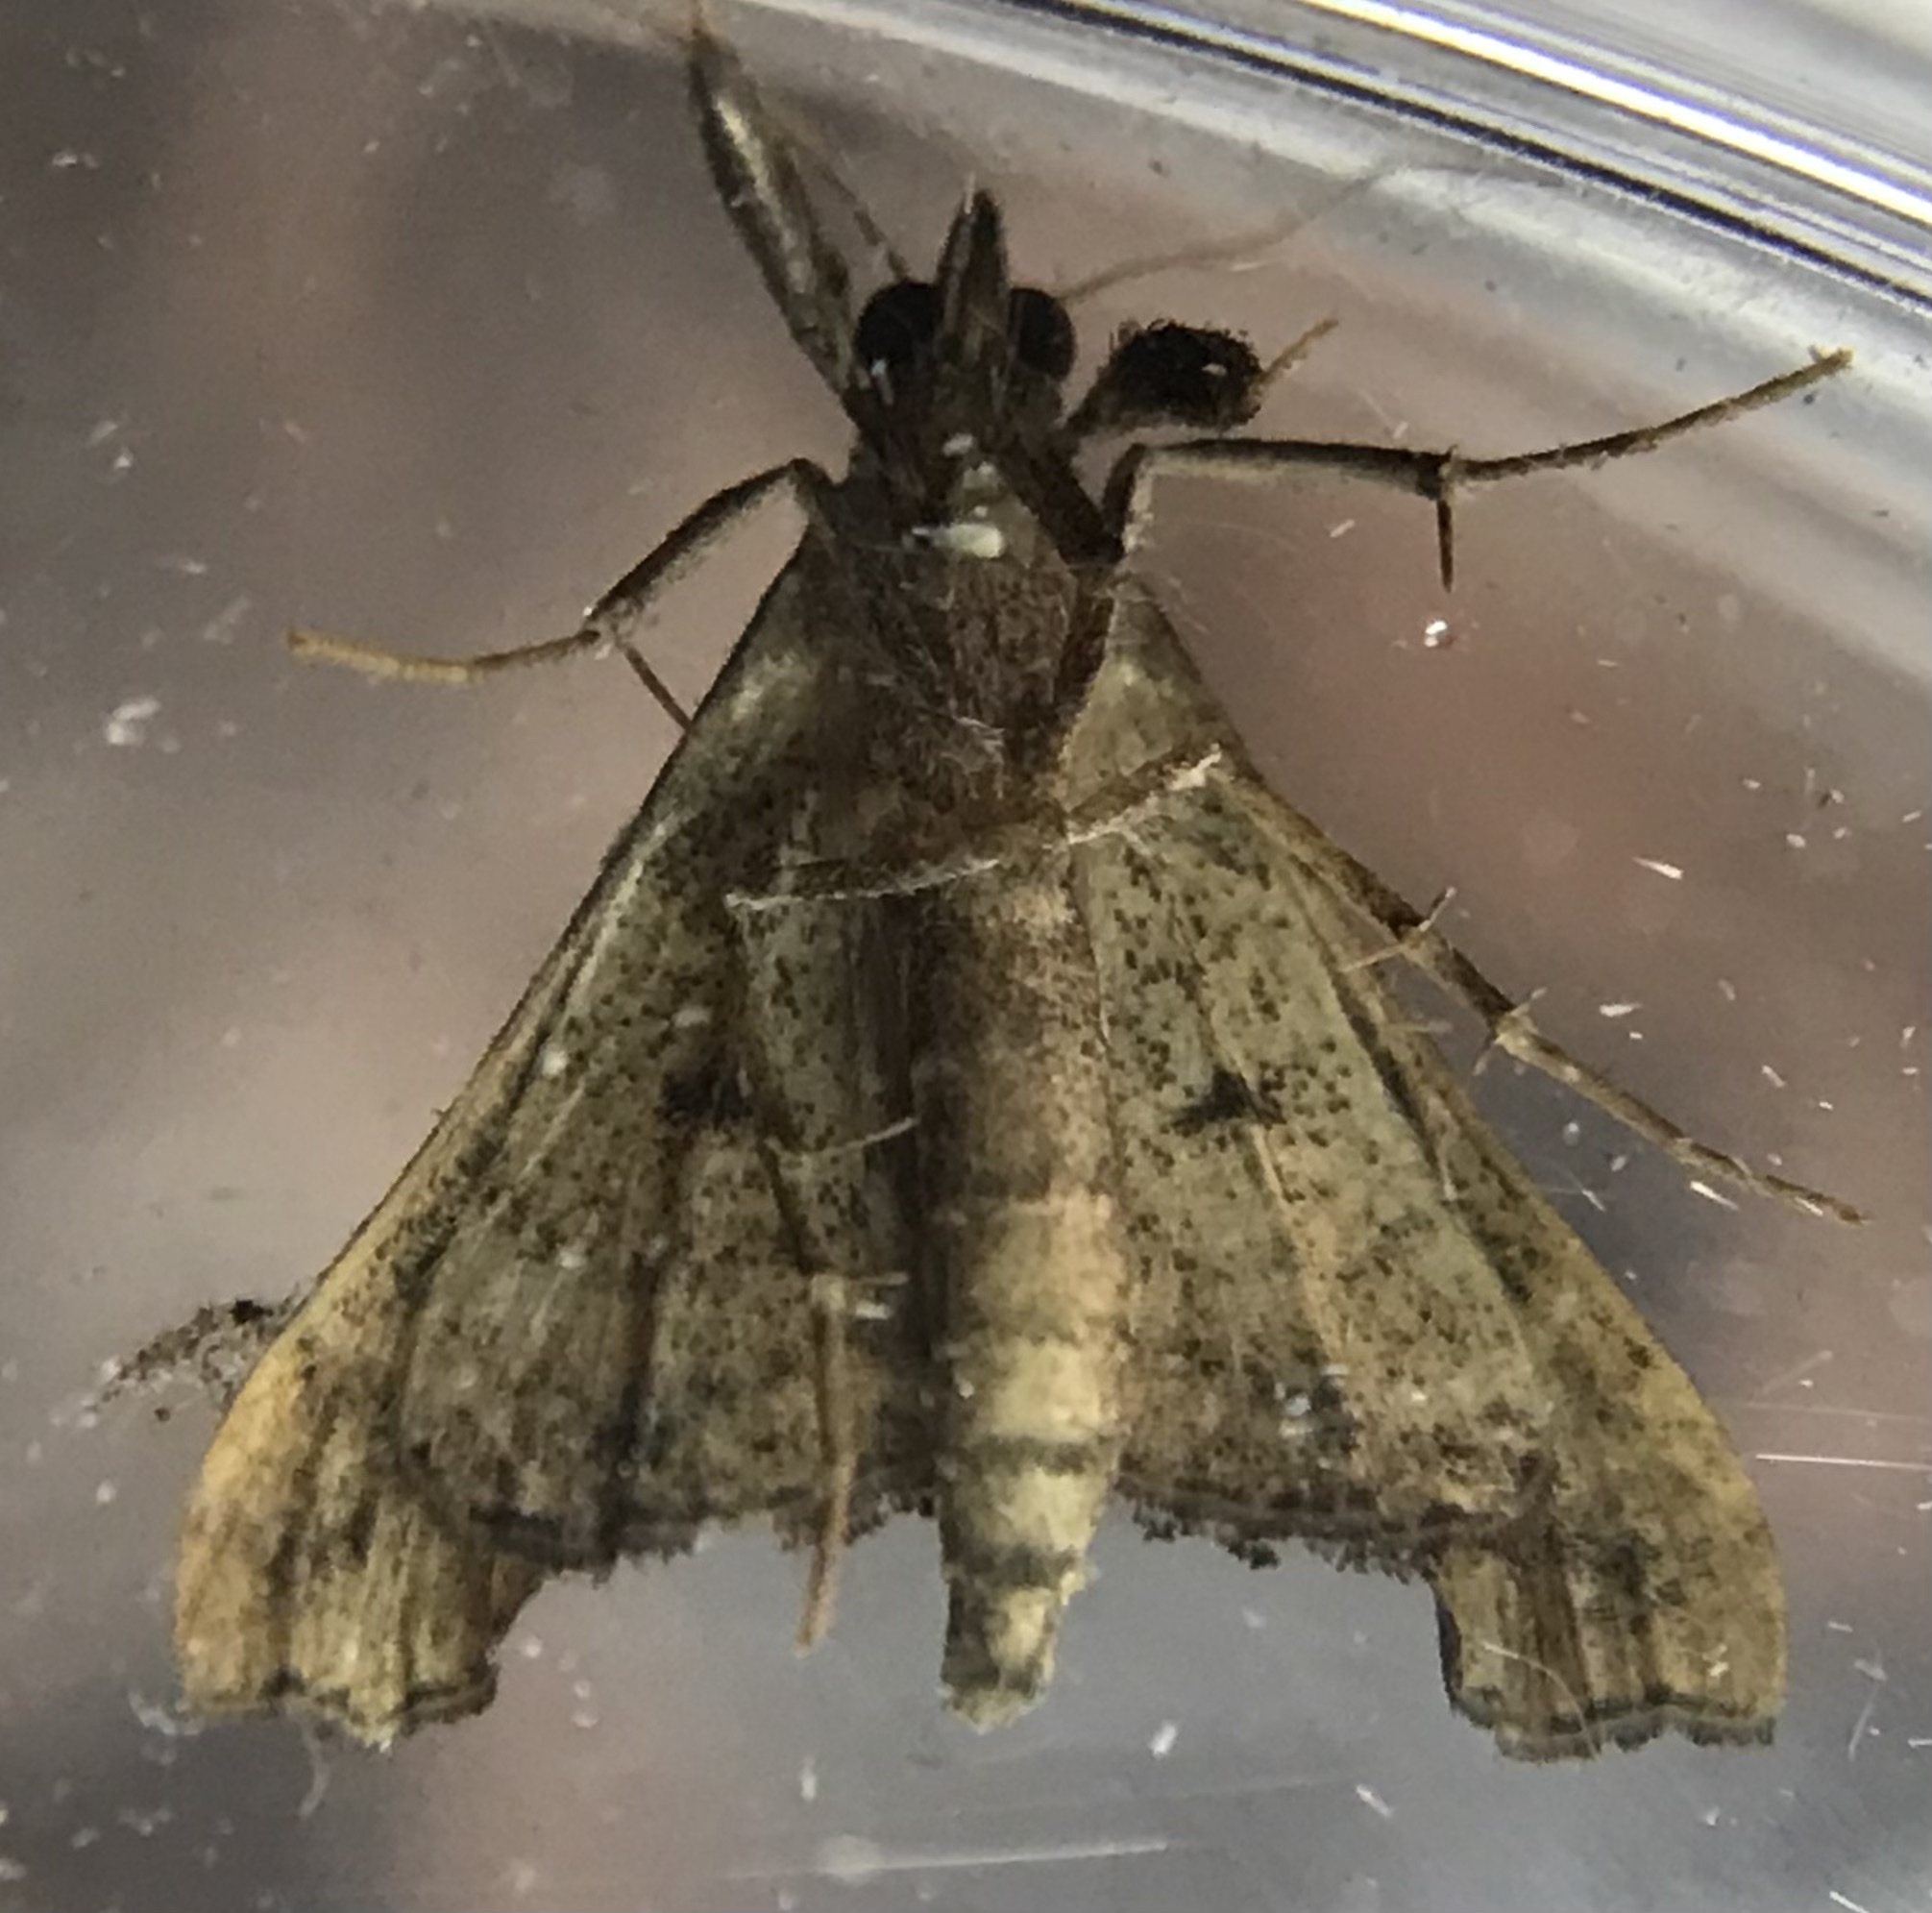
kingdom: Animalia
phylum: Arthropoda
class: Insecta
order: Lepidoptera
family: Erebidae
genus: Palthis
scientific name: Palthis angulalis
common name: Dark-spotted palthis moth
